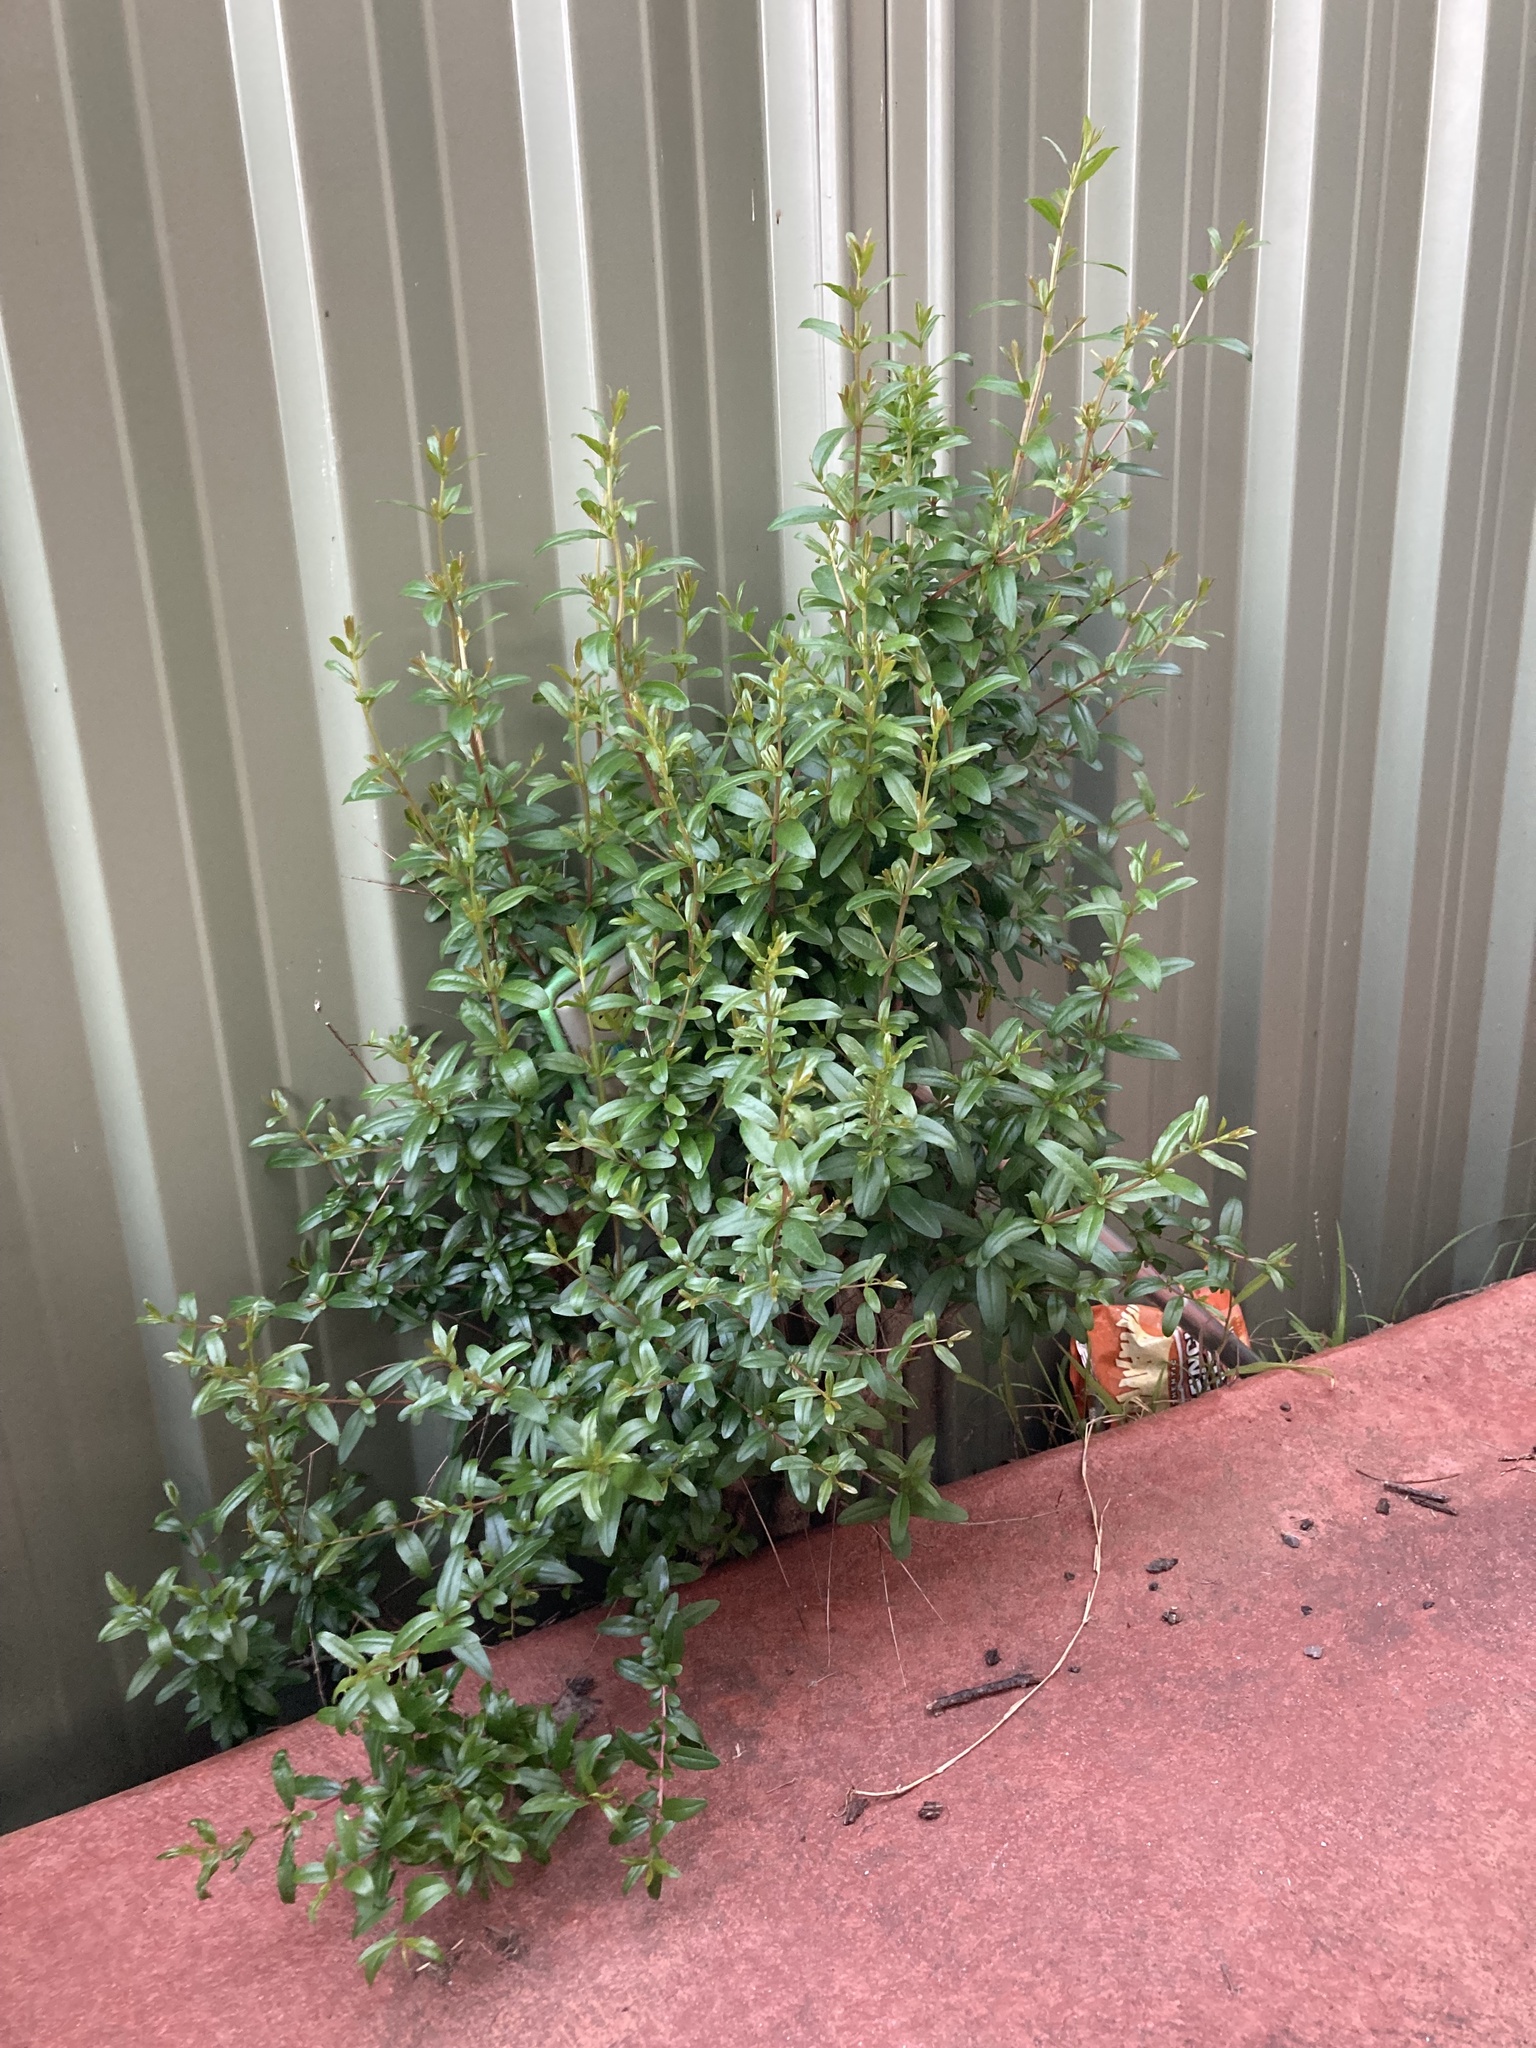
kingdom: Plantae
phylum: Tracheophyta
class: Magnoliopsida
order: Myrtales
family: Lythraceae
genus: Punica
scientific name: Punica granatum
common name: Pomegranate
